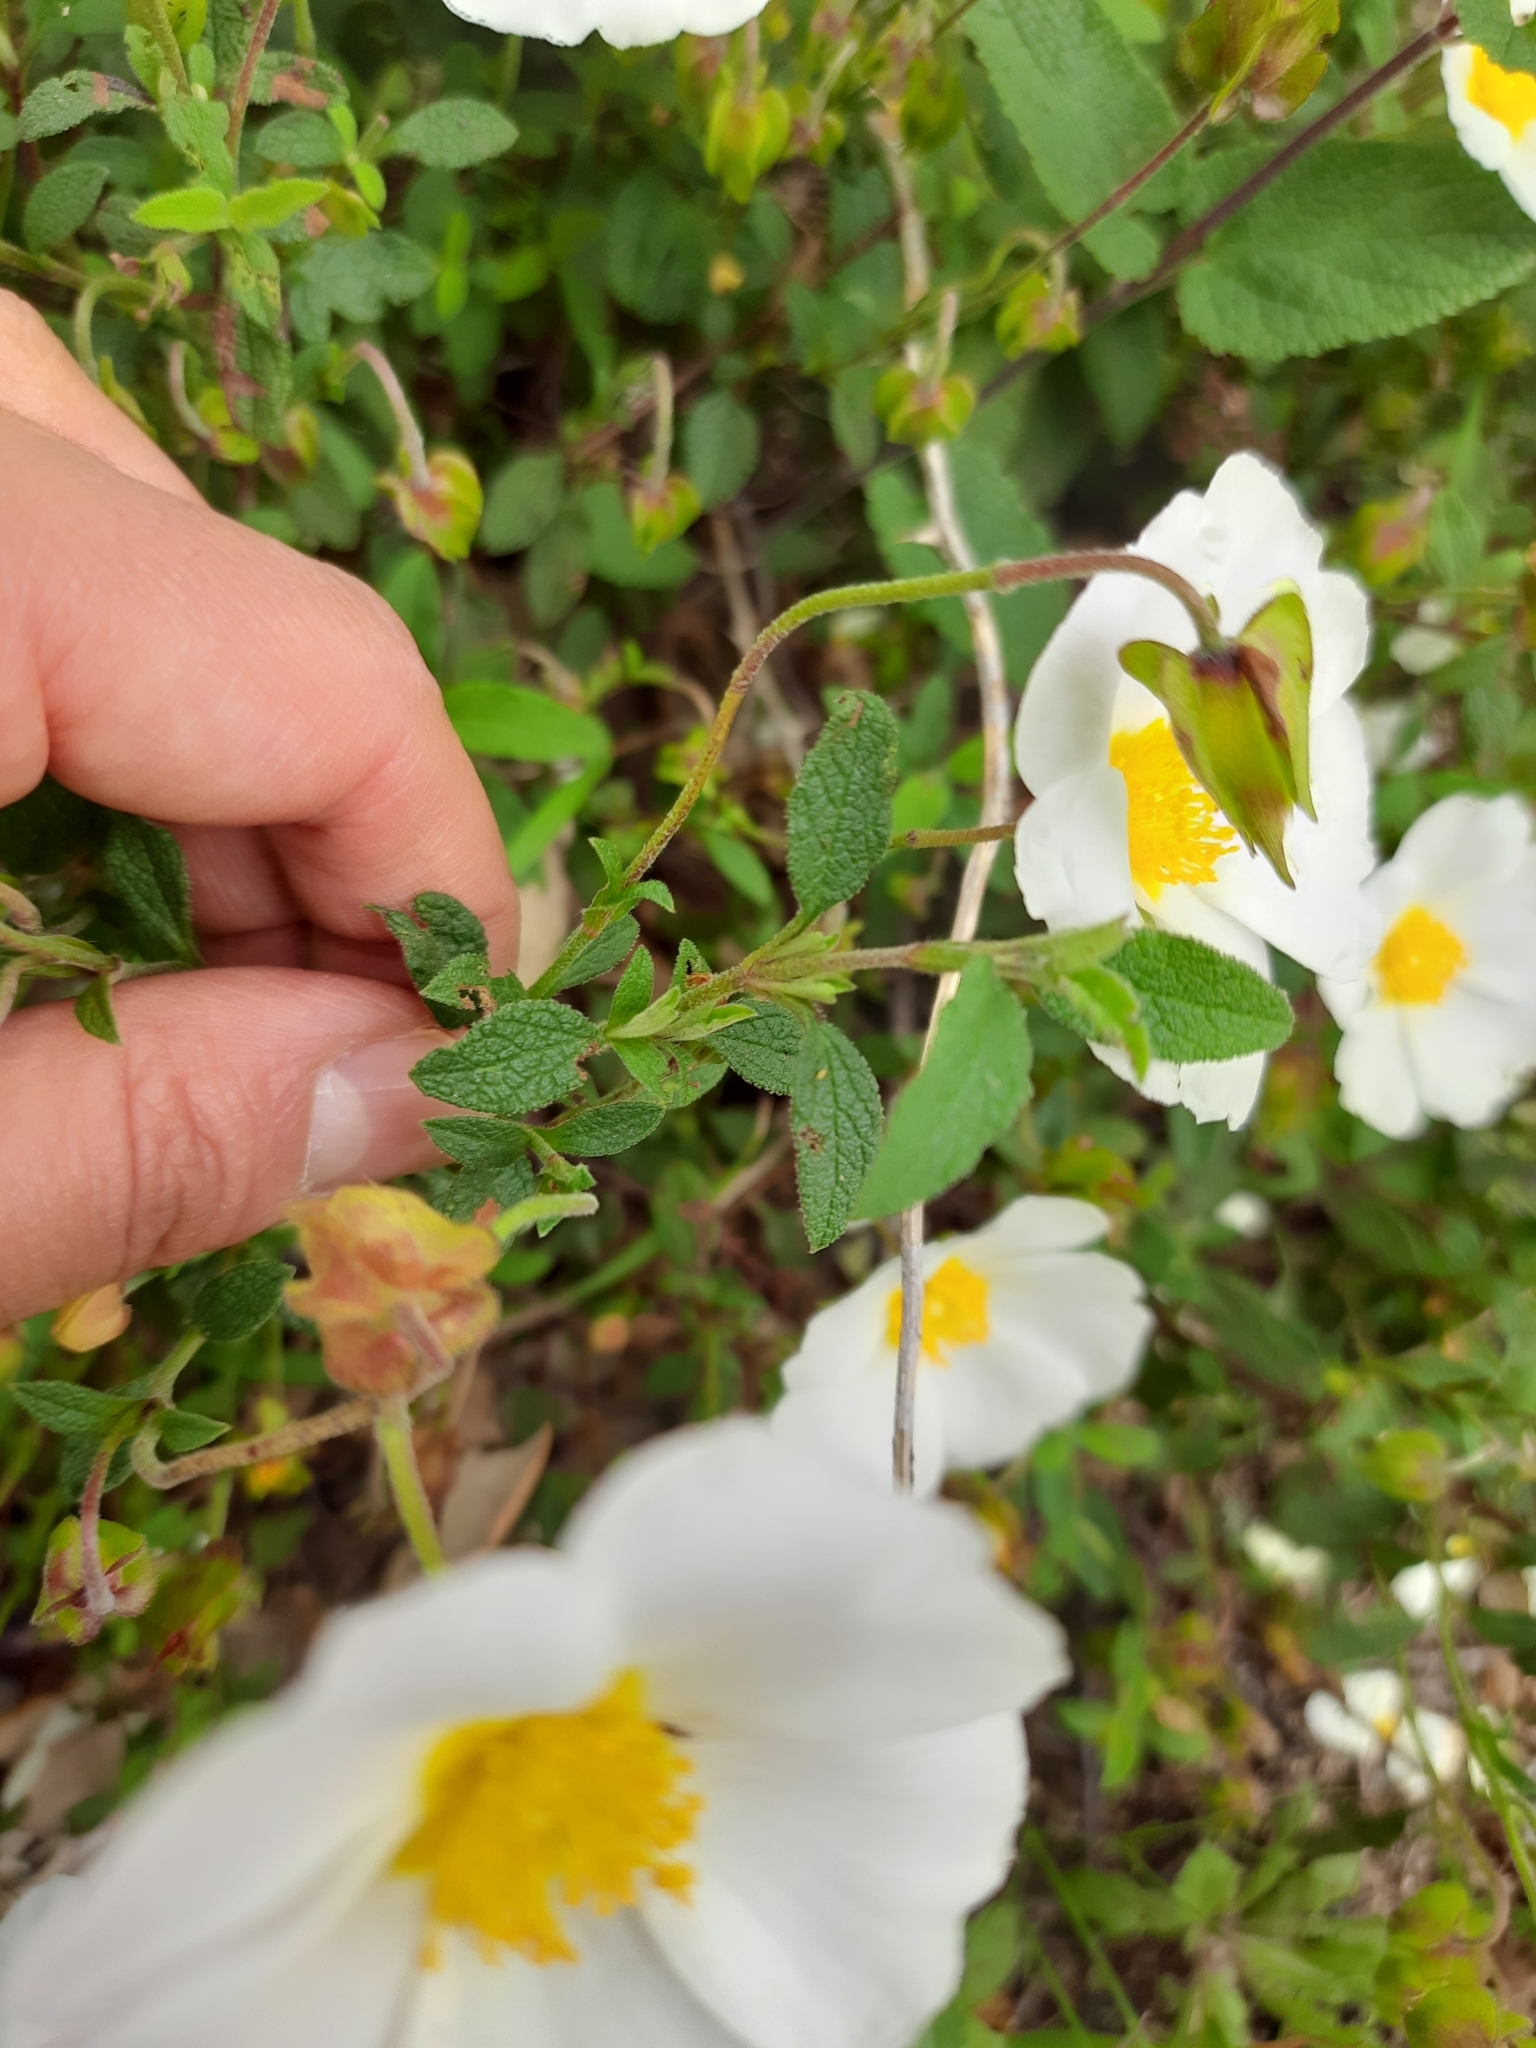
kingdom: Plantae
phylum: Tracheophyta
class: Magnoliopsida
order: Malvales
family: Cistaceae
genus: Cistus
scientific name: Cistus salviifolius
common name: Salvia cistus
